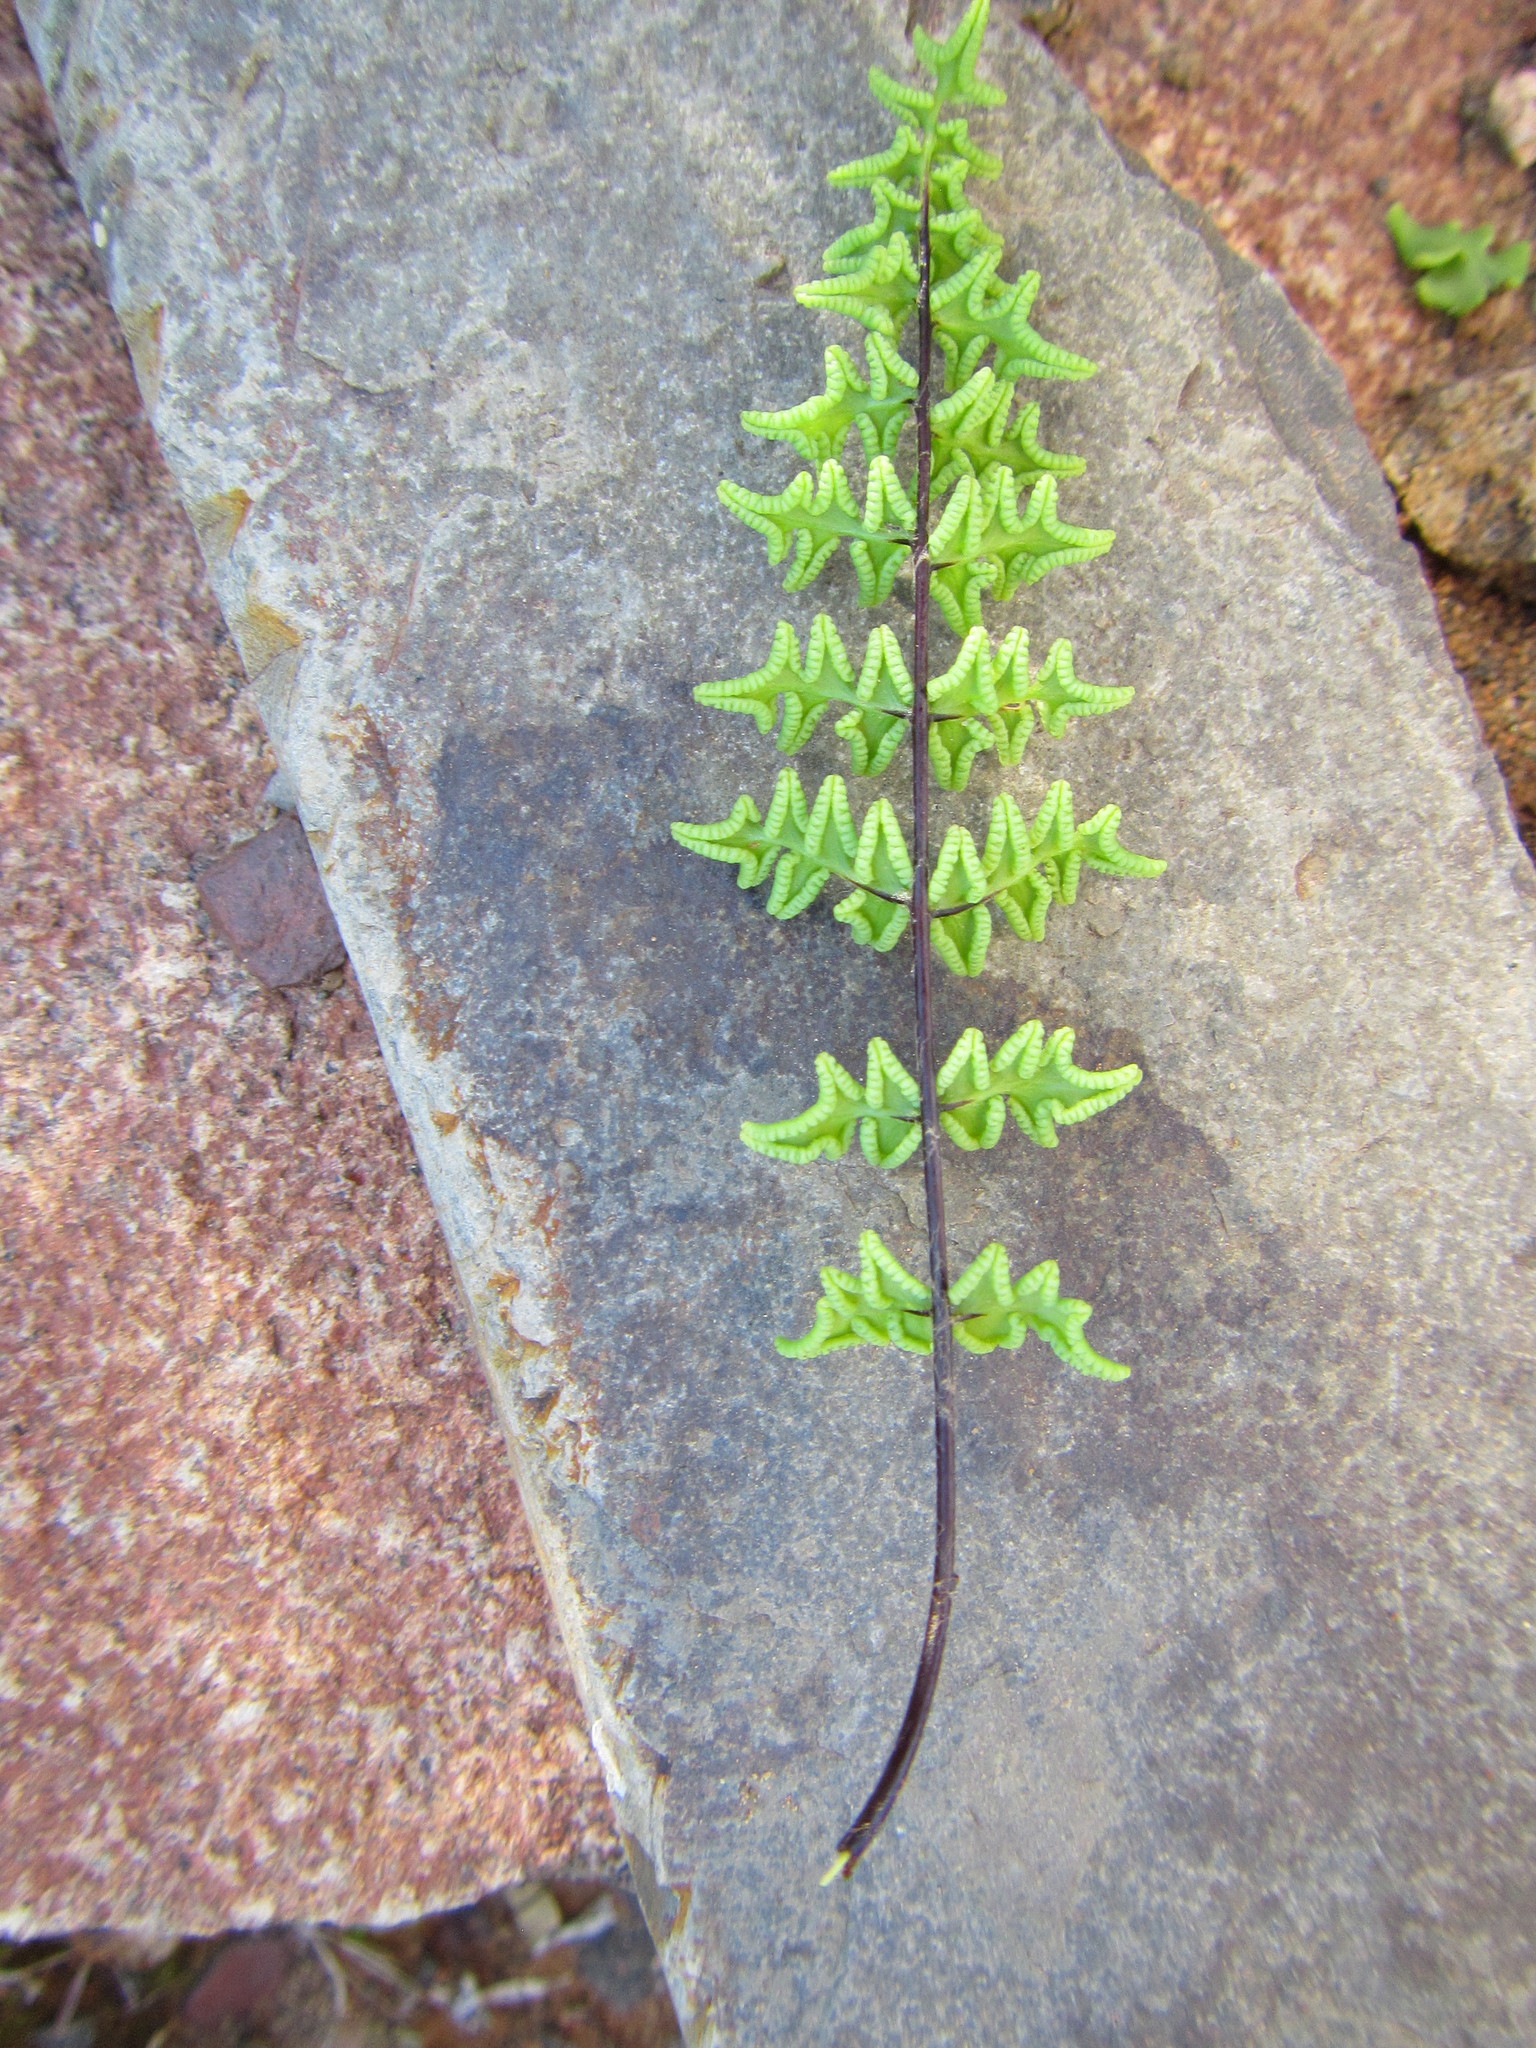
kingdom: Plantae
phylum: Tracheophyta
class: Polypodiopsida
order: Polypodiales
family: Pteridaceae
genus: Cheilanthes
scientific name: Cheilanthes namaquensis
